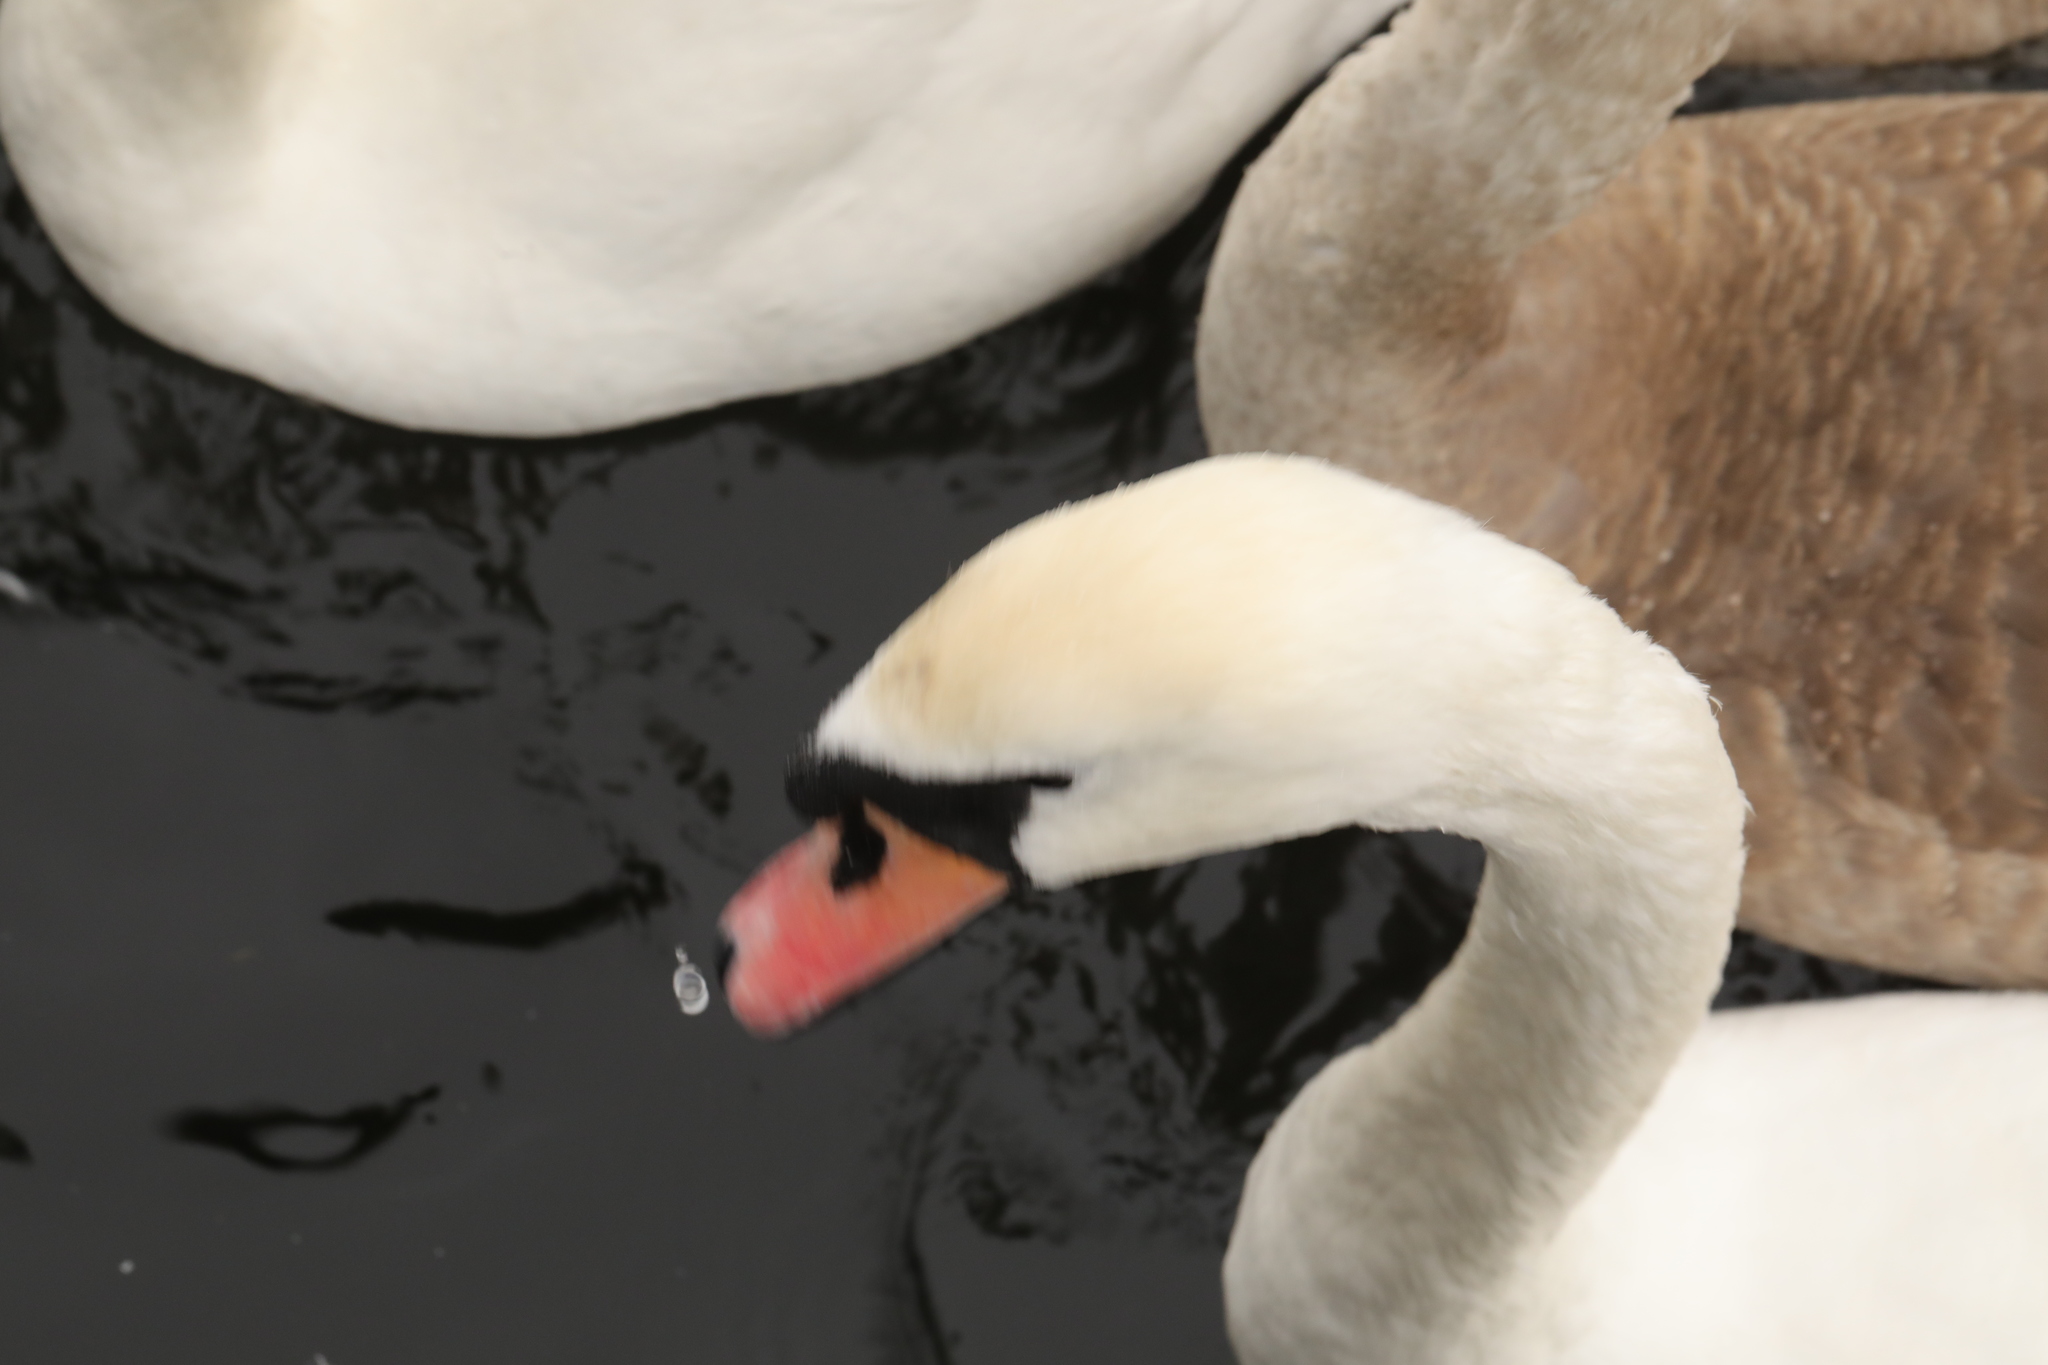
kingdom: Animalia
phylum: Chordata
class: Aves
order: Anseriformes
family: Anatidae
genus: Cygnus
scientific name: Cygnus olor
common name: Mute swan
